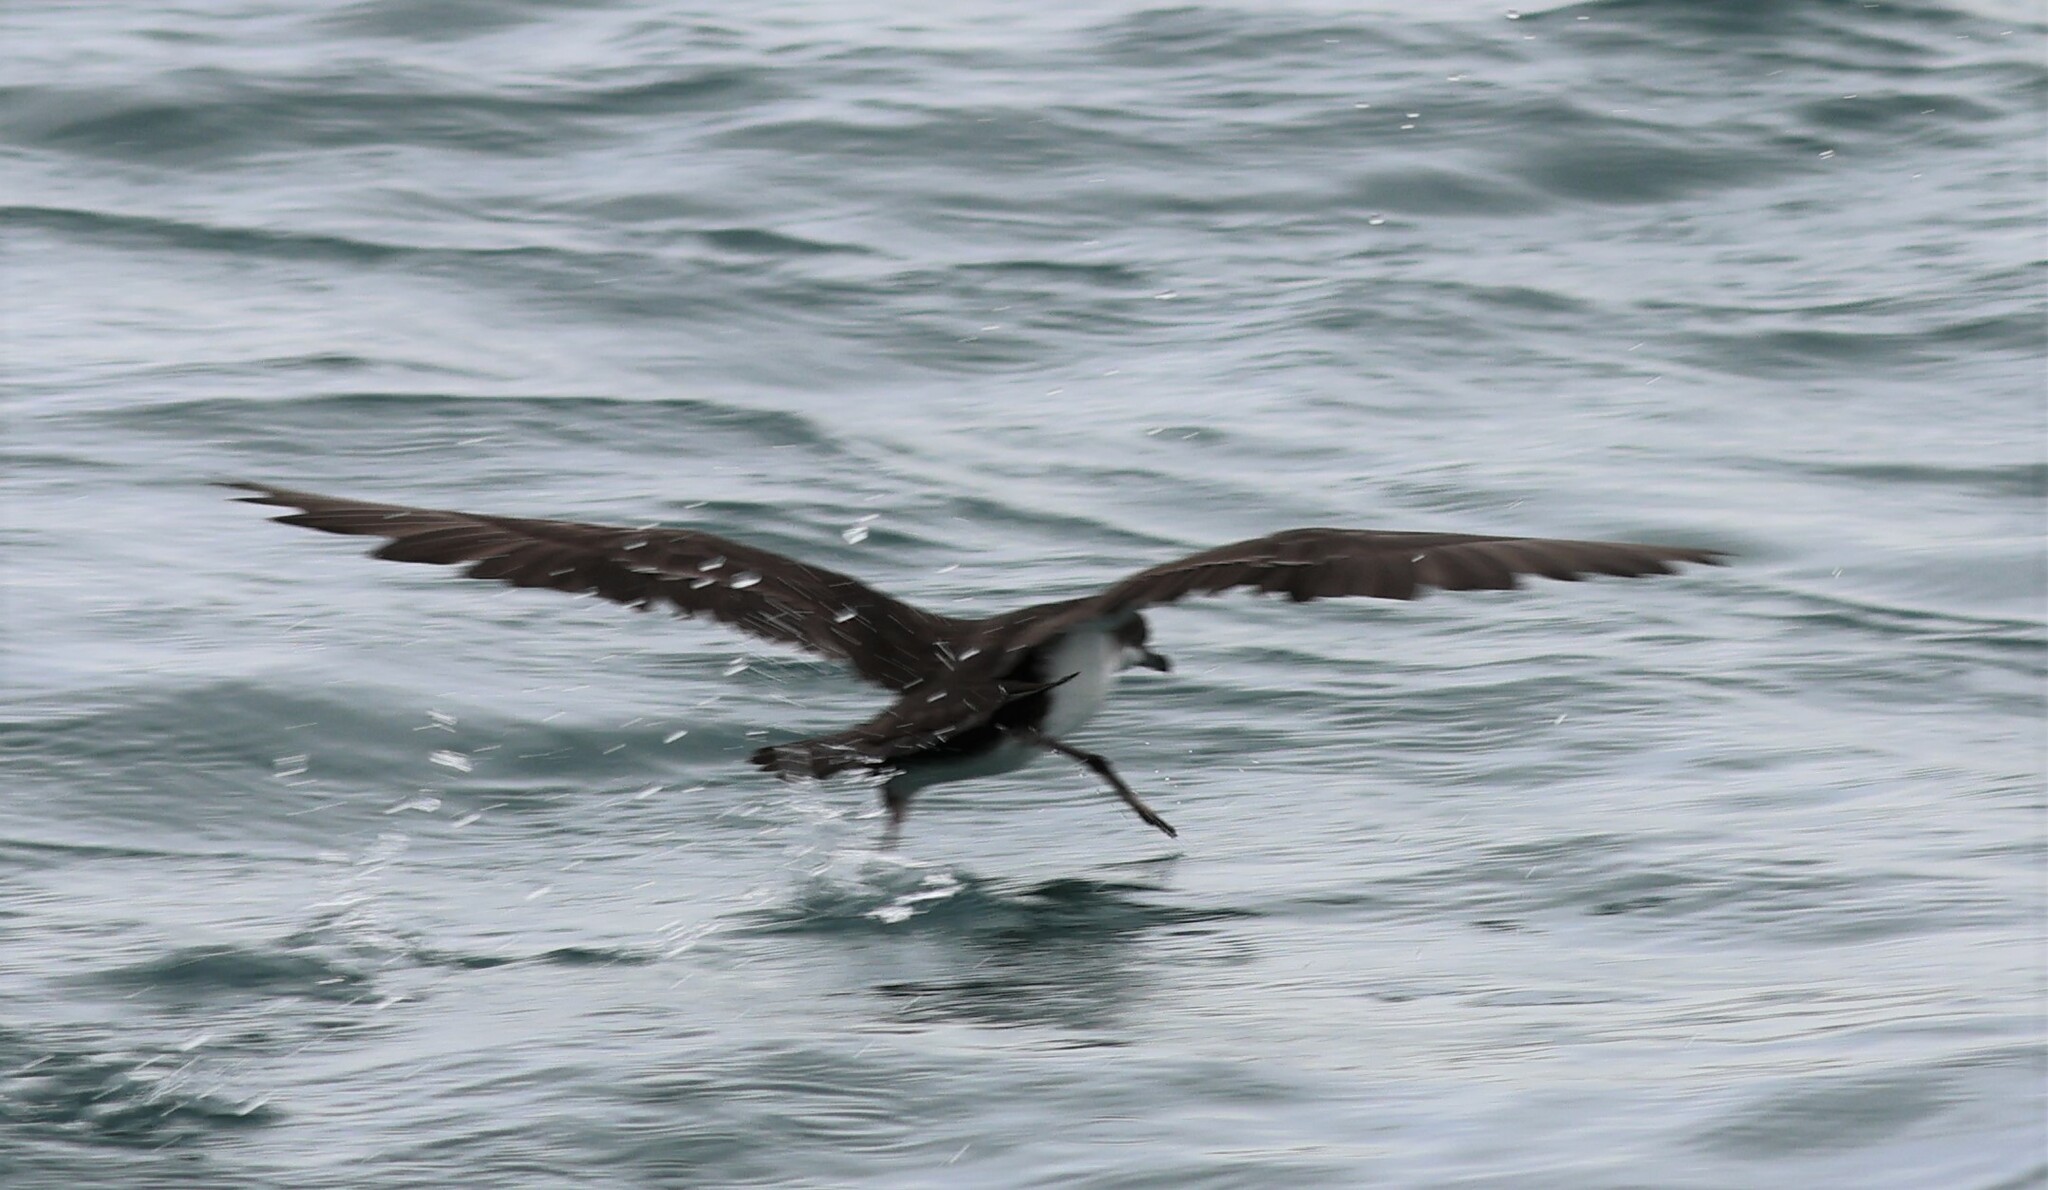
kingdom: Animalia
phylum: Chordata
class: Aves
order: Procellariiformes
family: Procellariidae
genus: Puffinus
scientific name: Puffinus subalaris
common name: Galapagos shearwater
